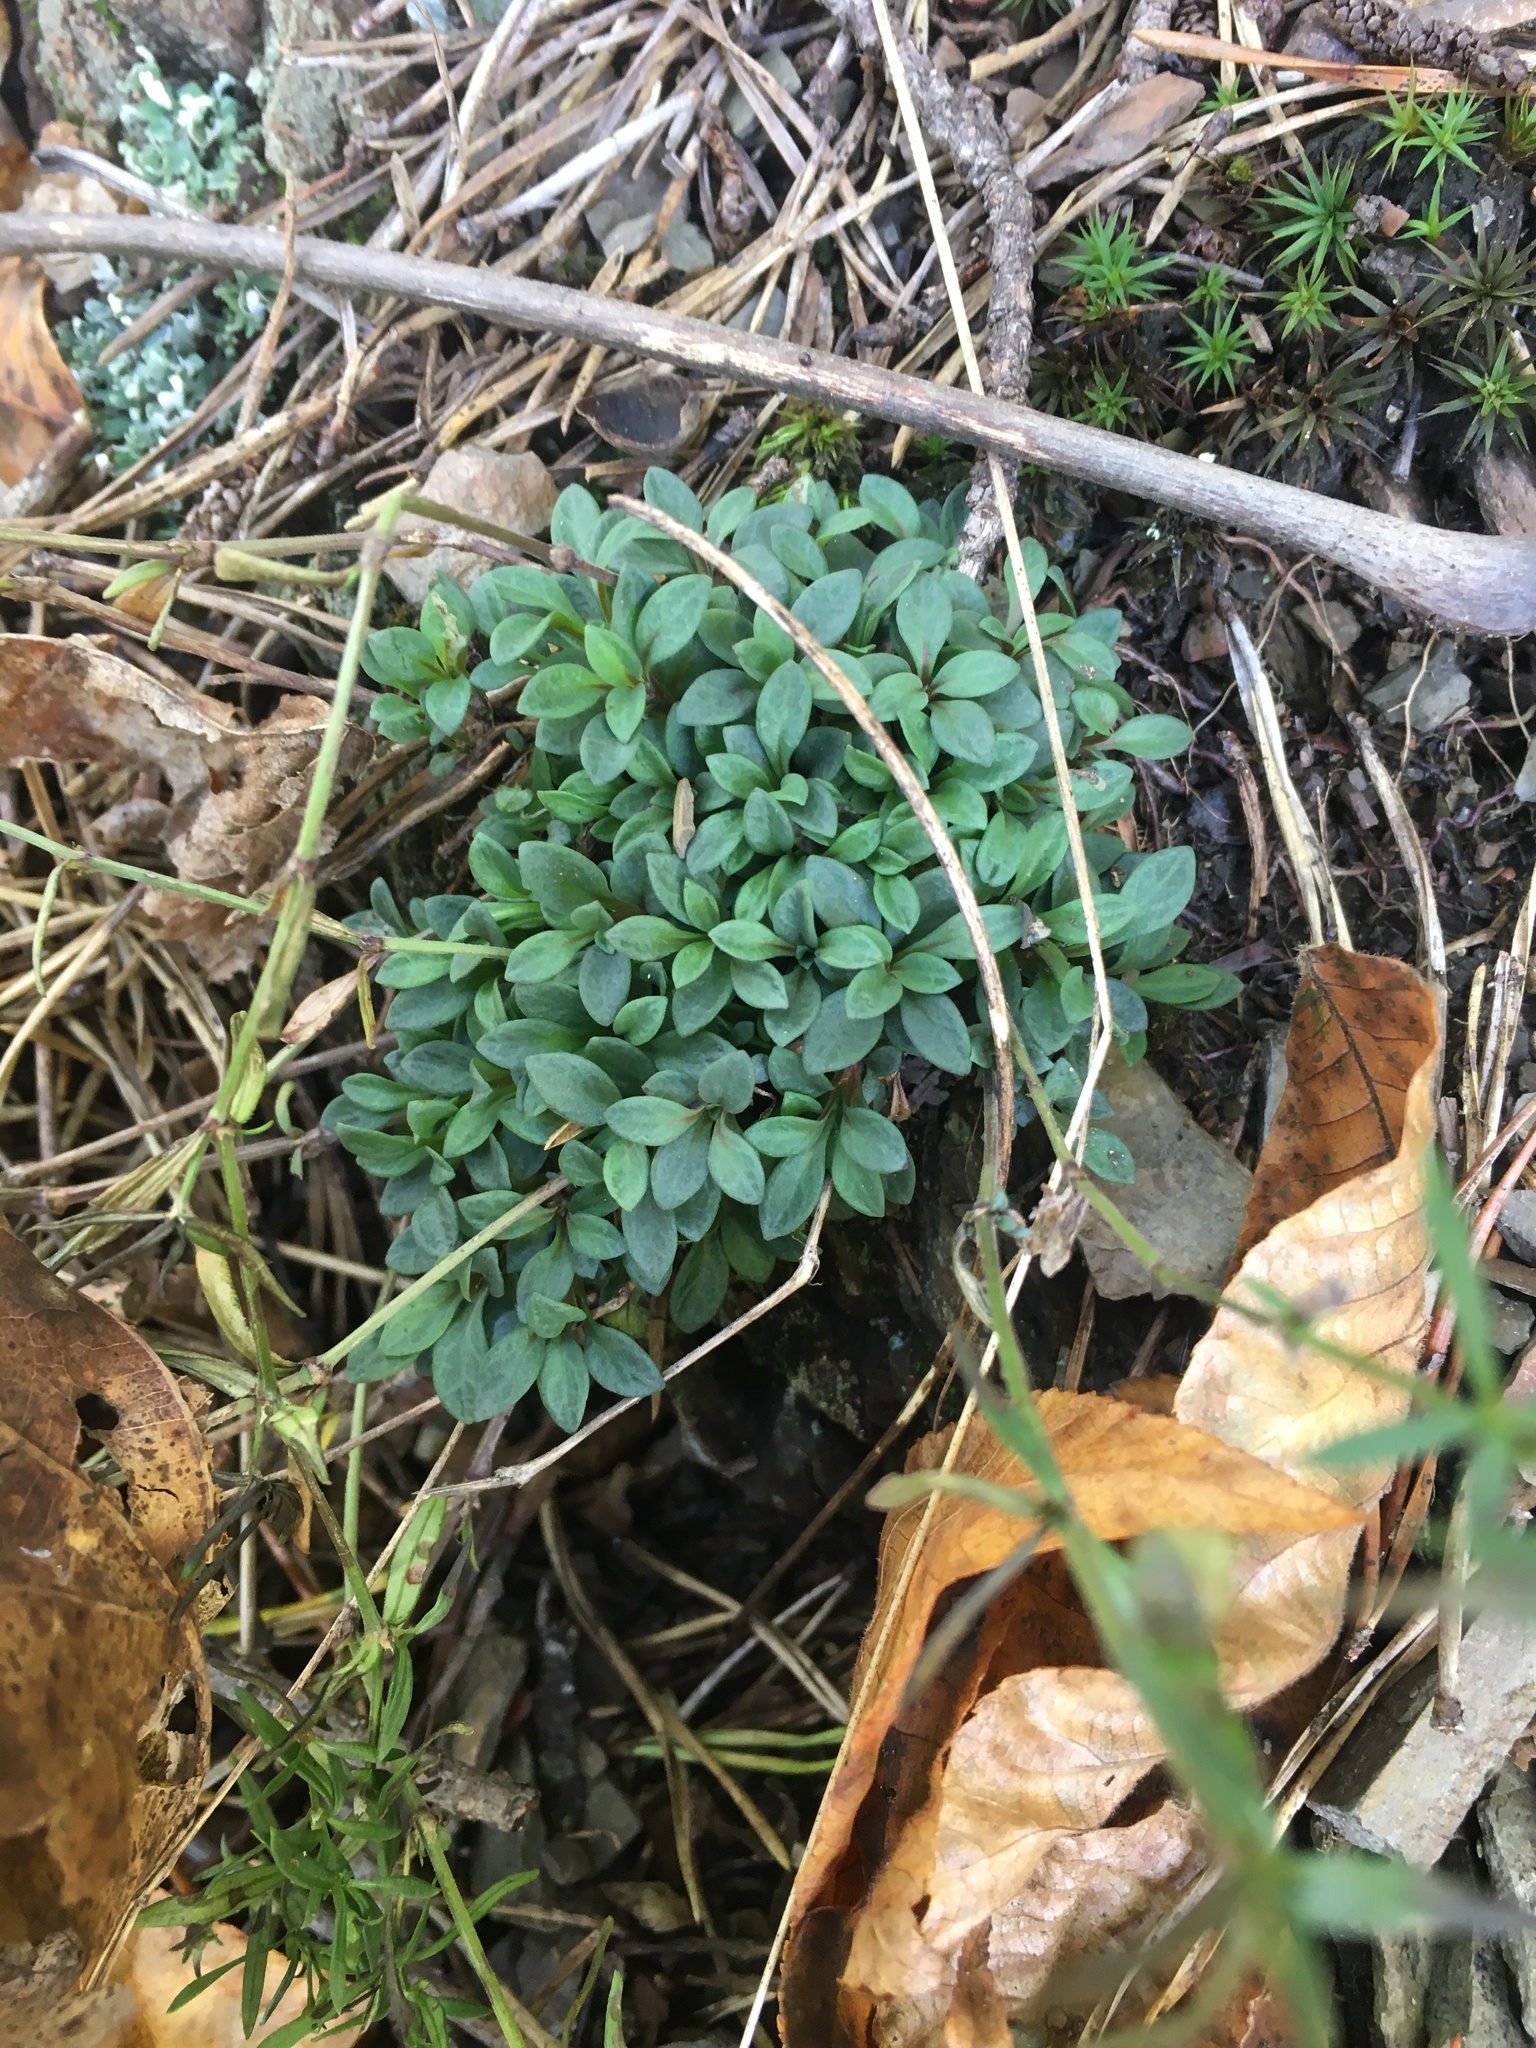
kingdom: Plantae
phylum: Tracheophyta
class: Magnoliopsida
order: Gentianales
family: Rubiaceae
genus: Houstonia
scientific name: Houstonia longifolia
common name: Long-leaved bluets
